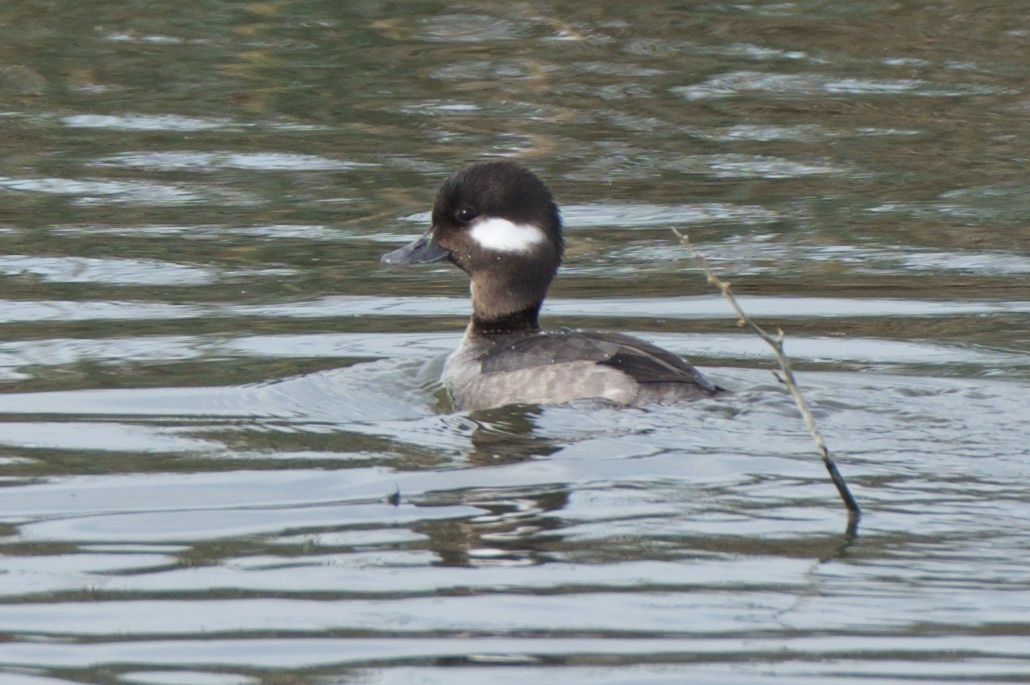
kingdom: Animalia
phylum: Chordata
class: Aves
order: Anseriformes
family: Anatidae
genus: Bucephala
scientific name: Bucephala albeola
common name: Bufflehead
